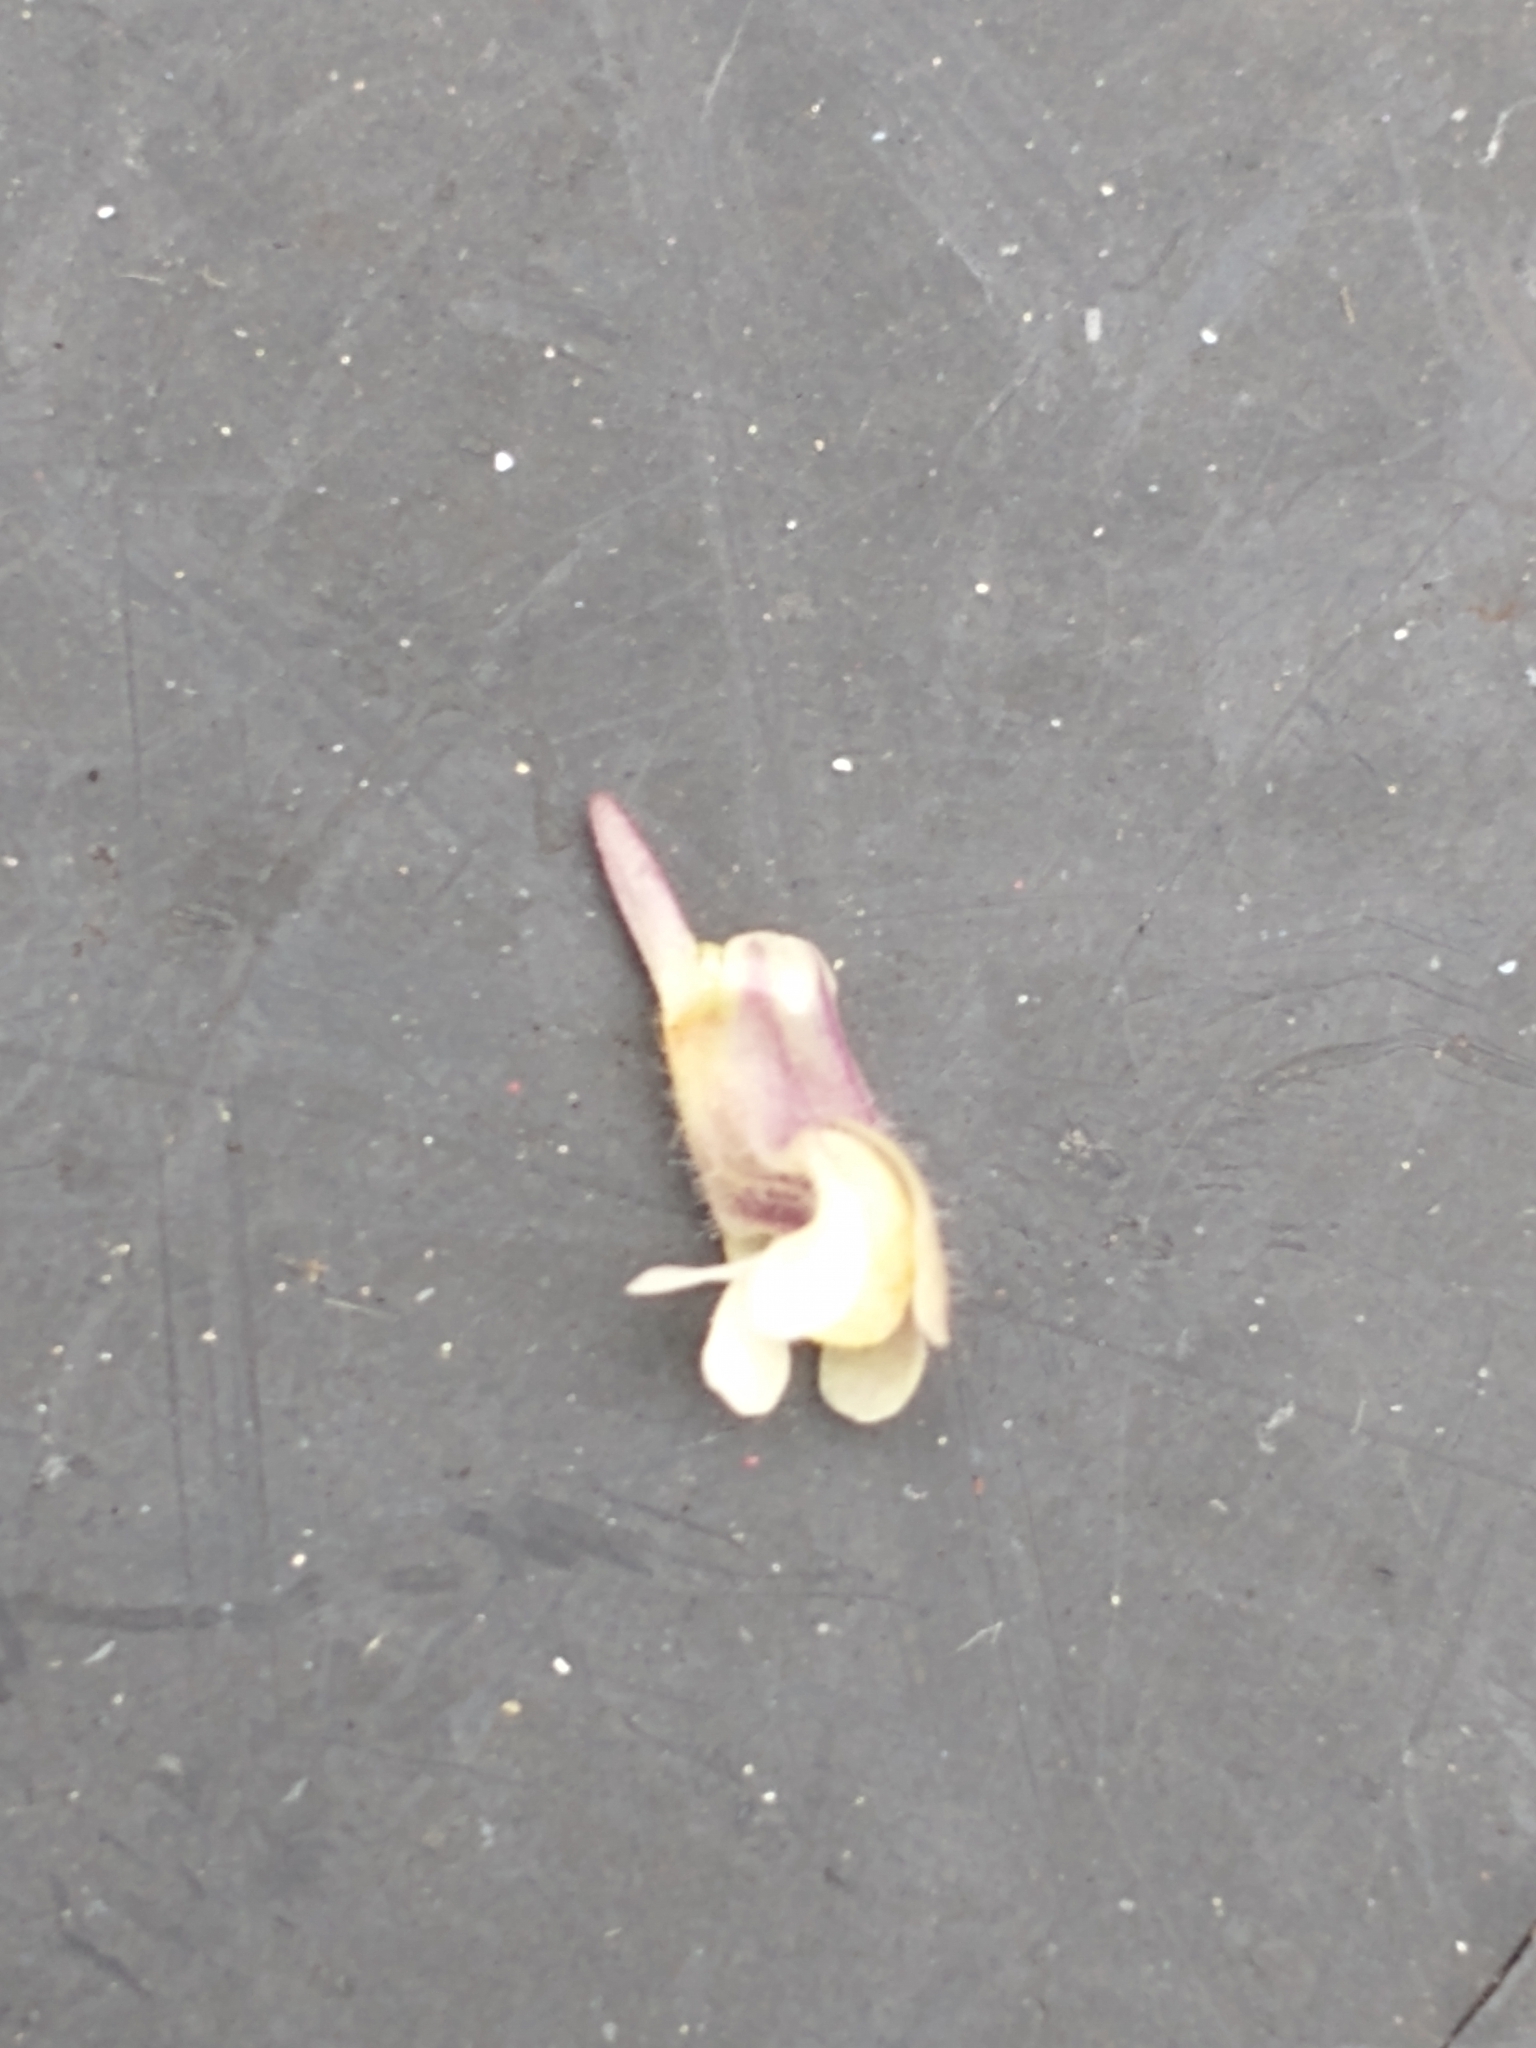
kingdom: Plantae
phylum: Tracheophyta
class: Magnoliopsida
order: Lamiales
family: Plantaginaceae
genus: Chaenorhinum
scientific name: Chaenorhinum minus
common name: Dwarf snapdragon
